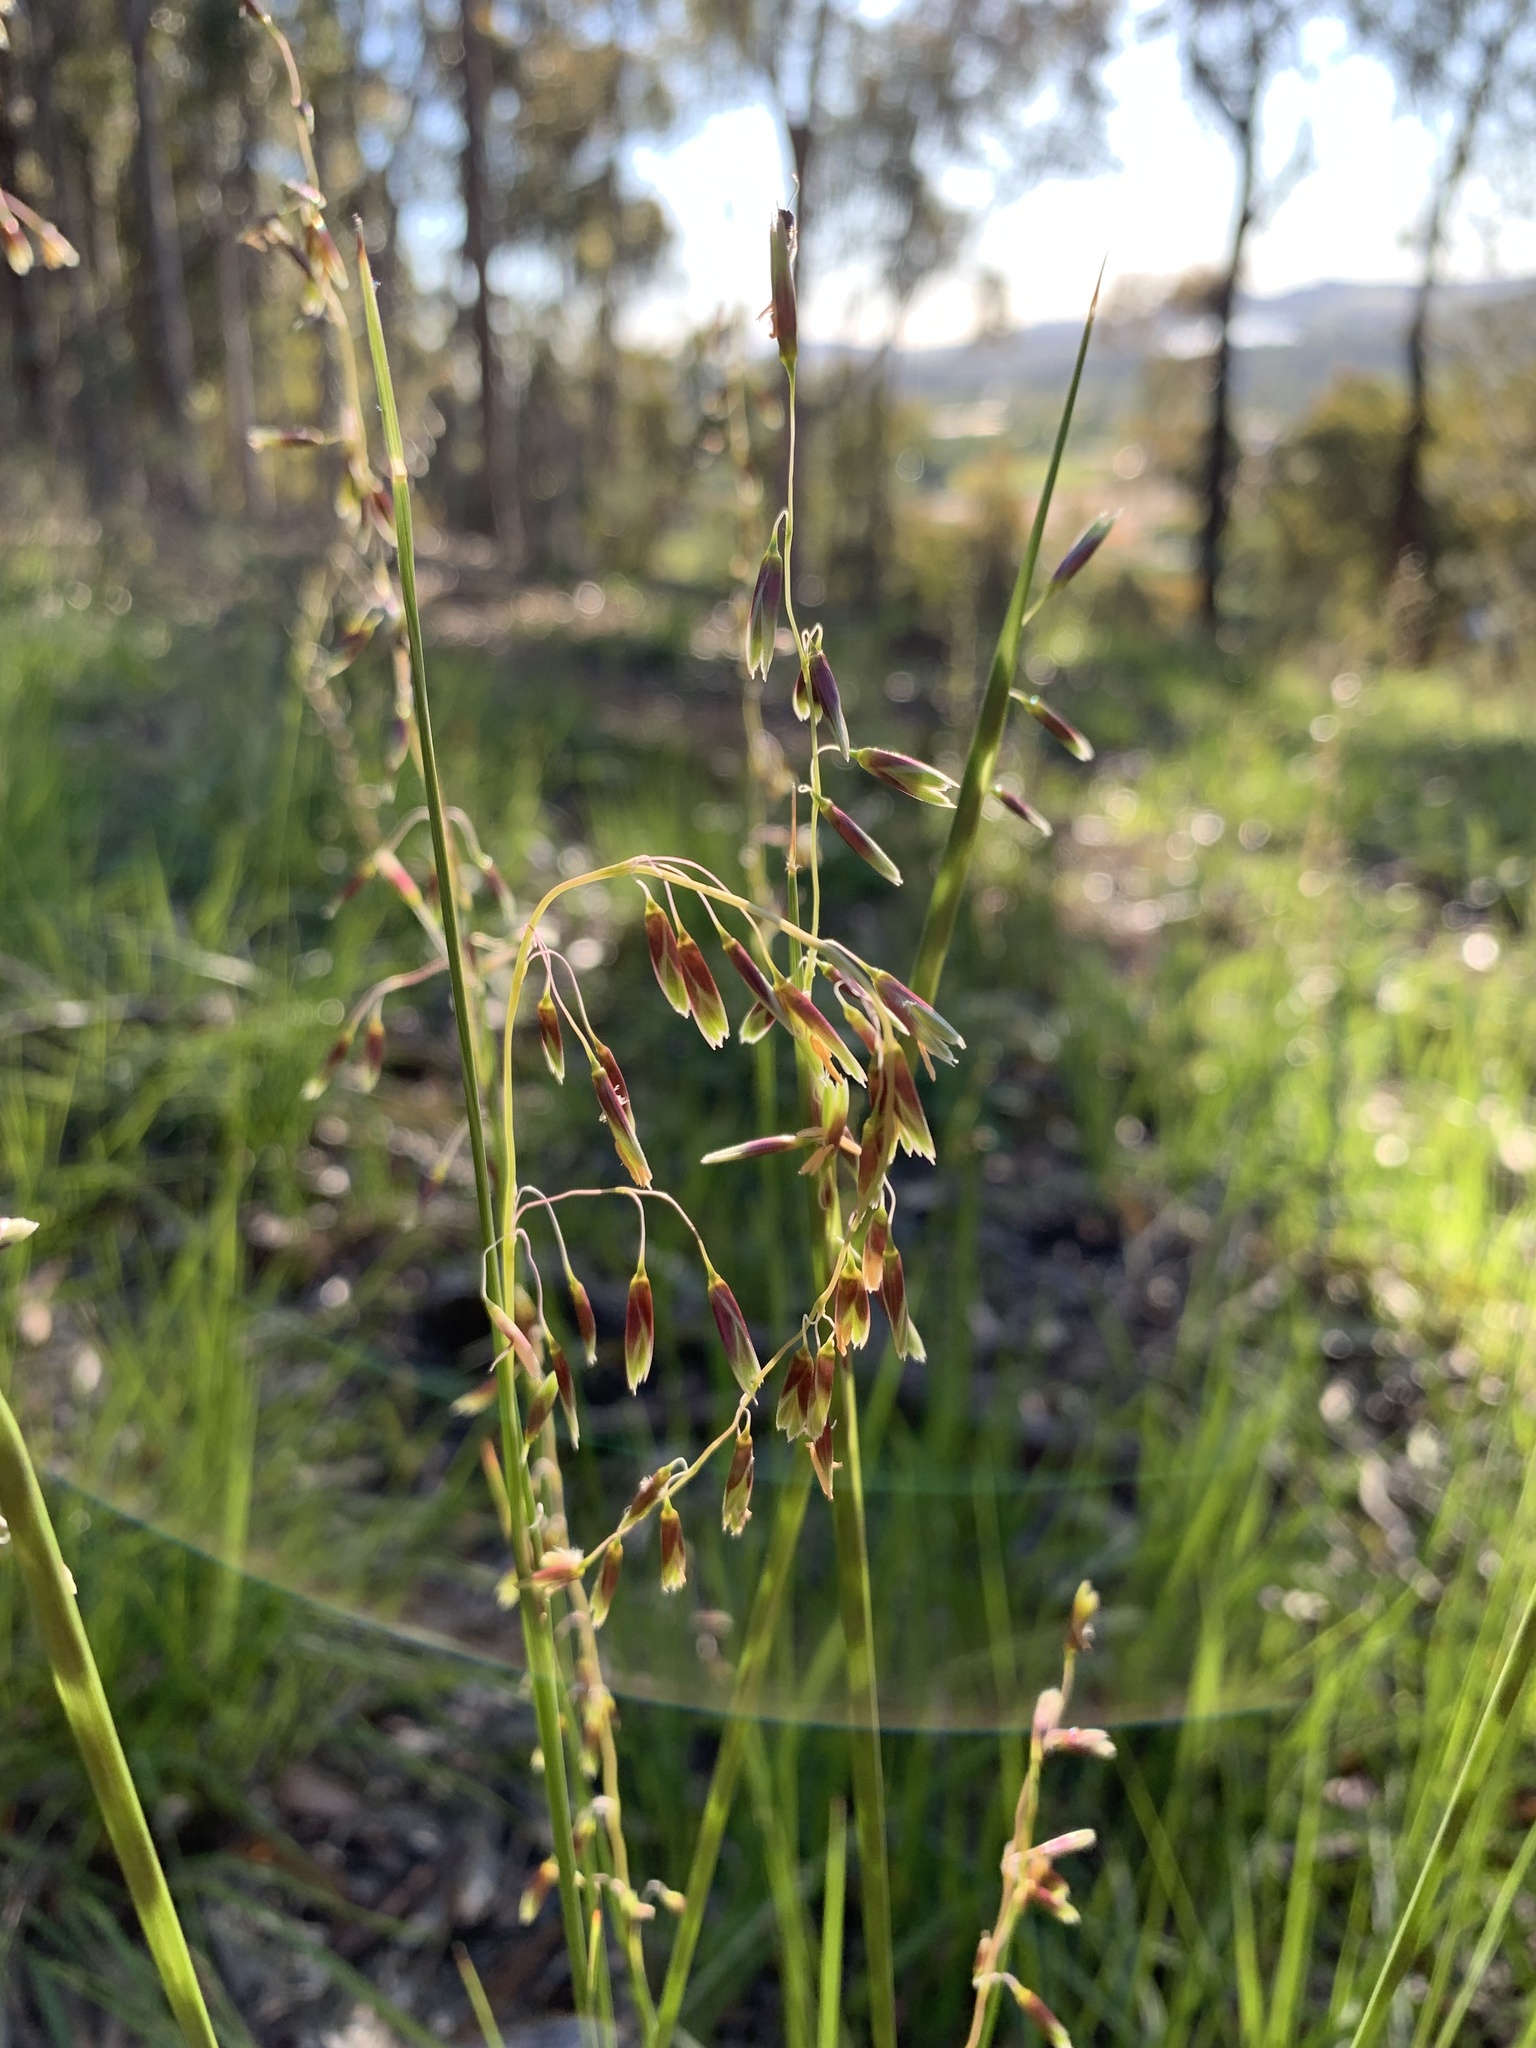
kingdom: Plantae
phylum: Tracheophyta
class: Liliopsida
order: Poales
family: Poaceae
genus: Ehrharta
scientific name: Ehrharta calycina
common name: Perennial veldtgrass
